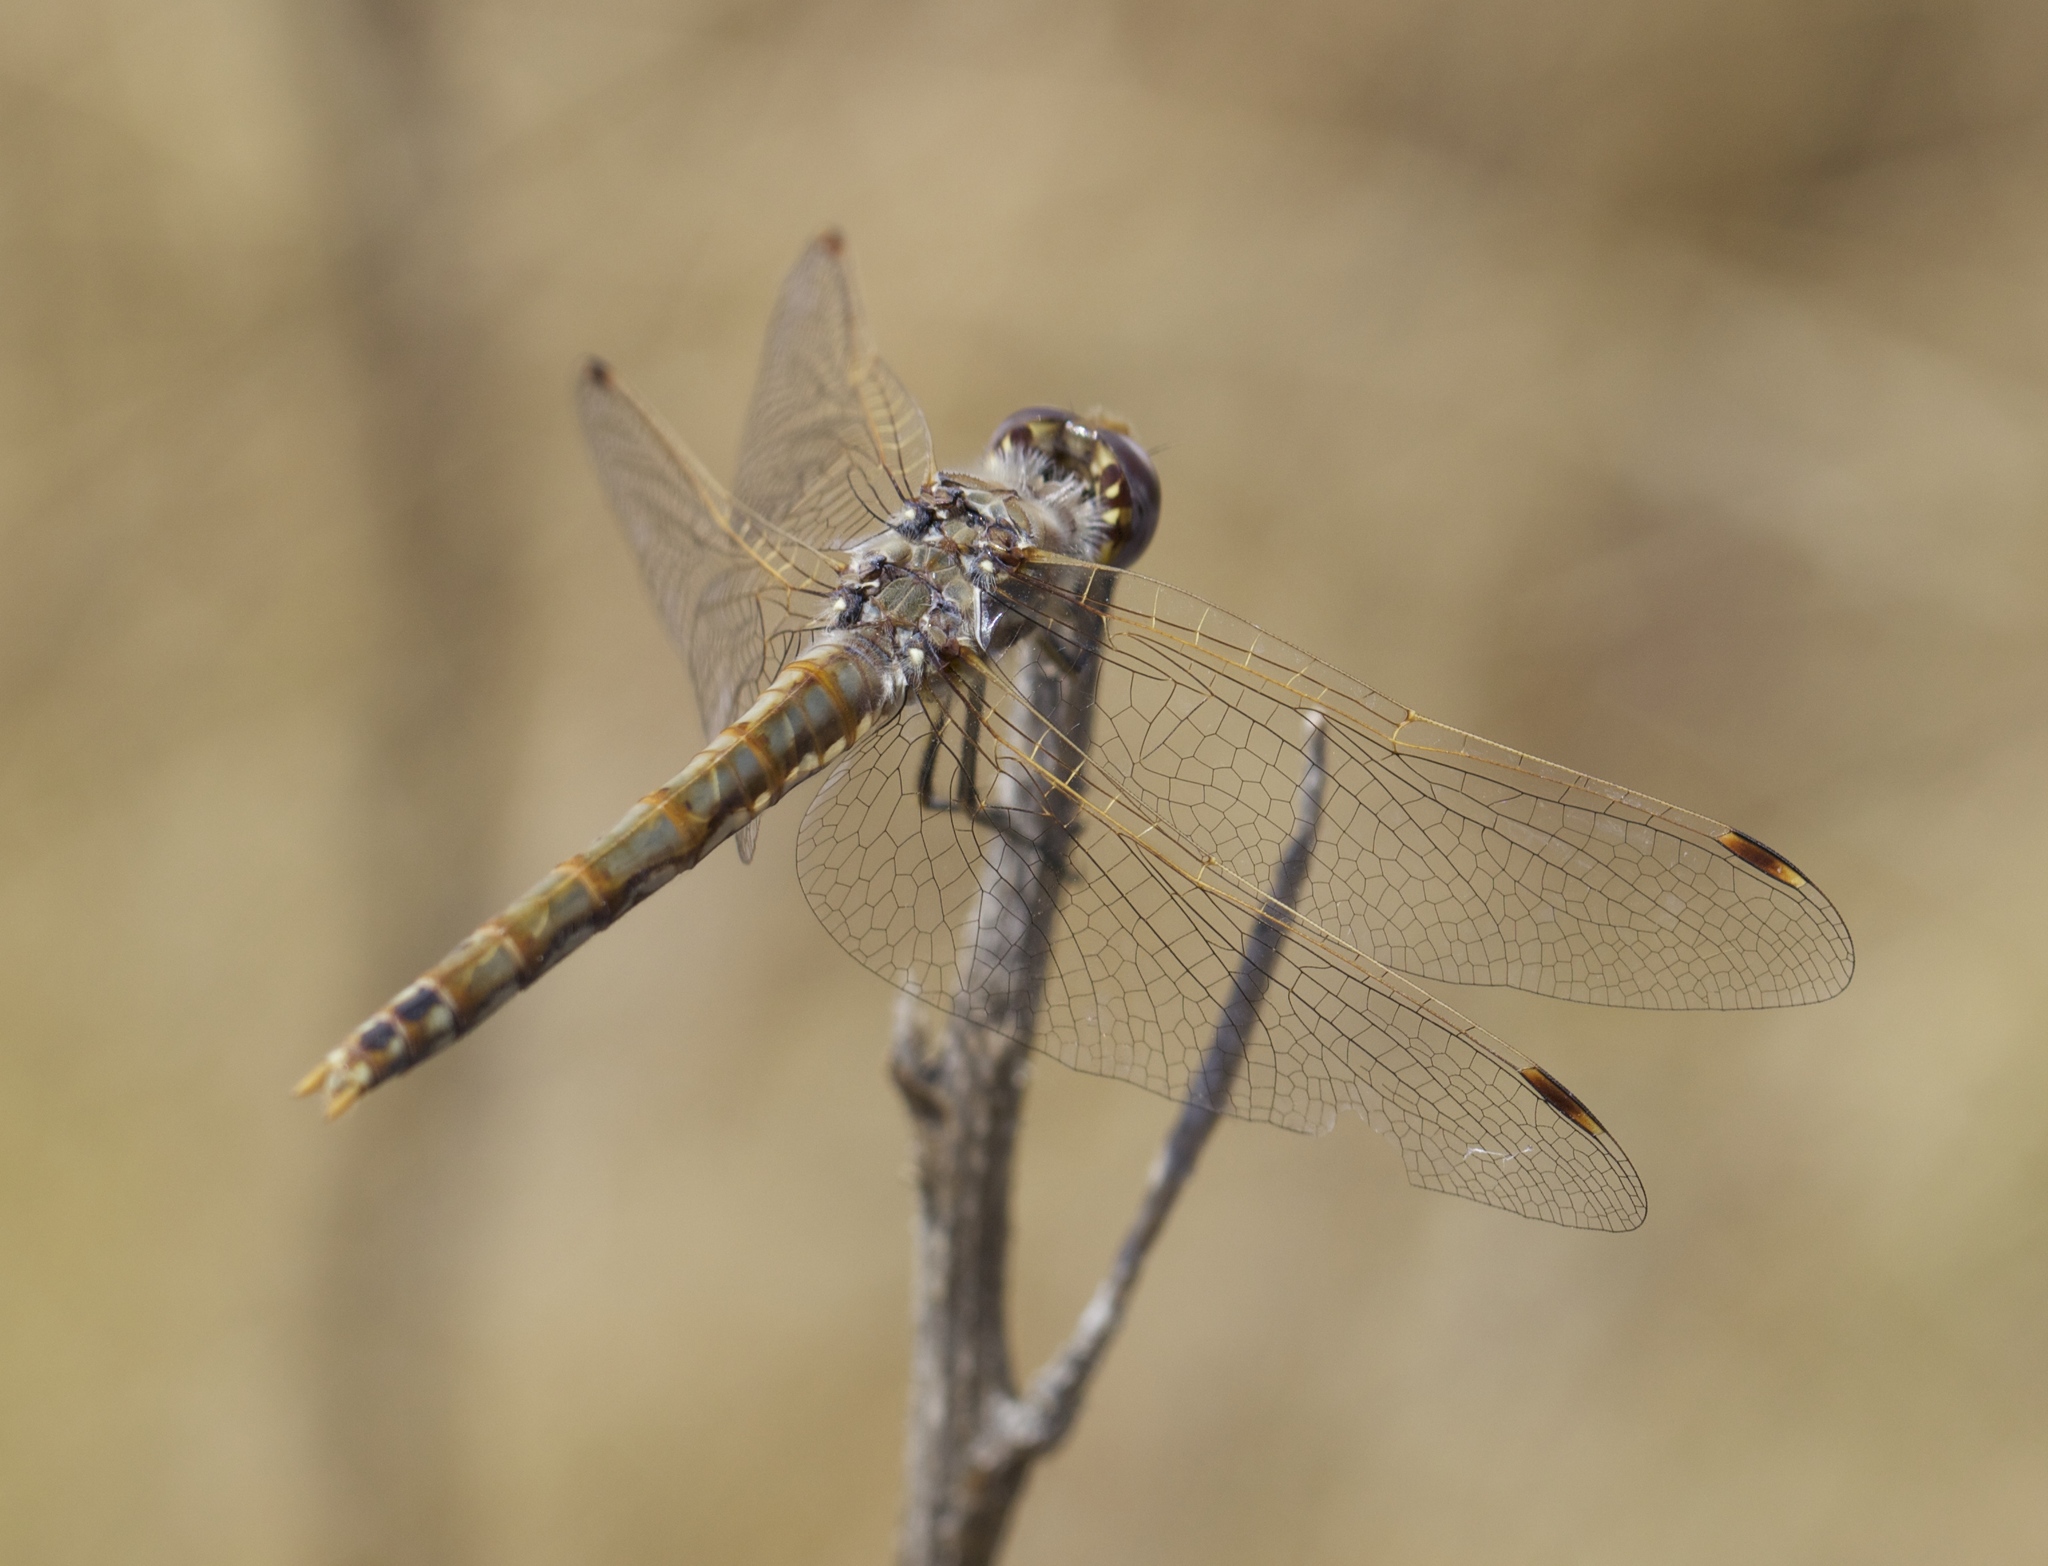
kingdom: Animalia
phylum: Arthropoda
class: Insecta
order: Odonata
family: Libellulidae
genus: Sympetrum
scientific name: Sympetrum corruptum
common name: Variegated meadowhawk
